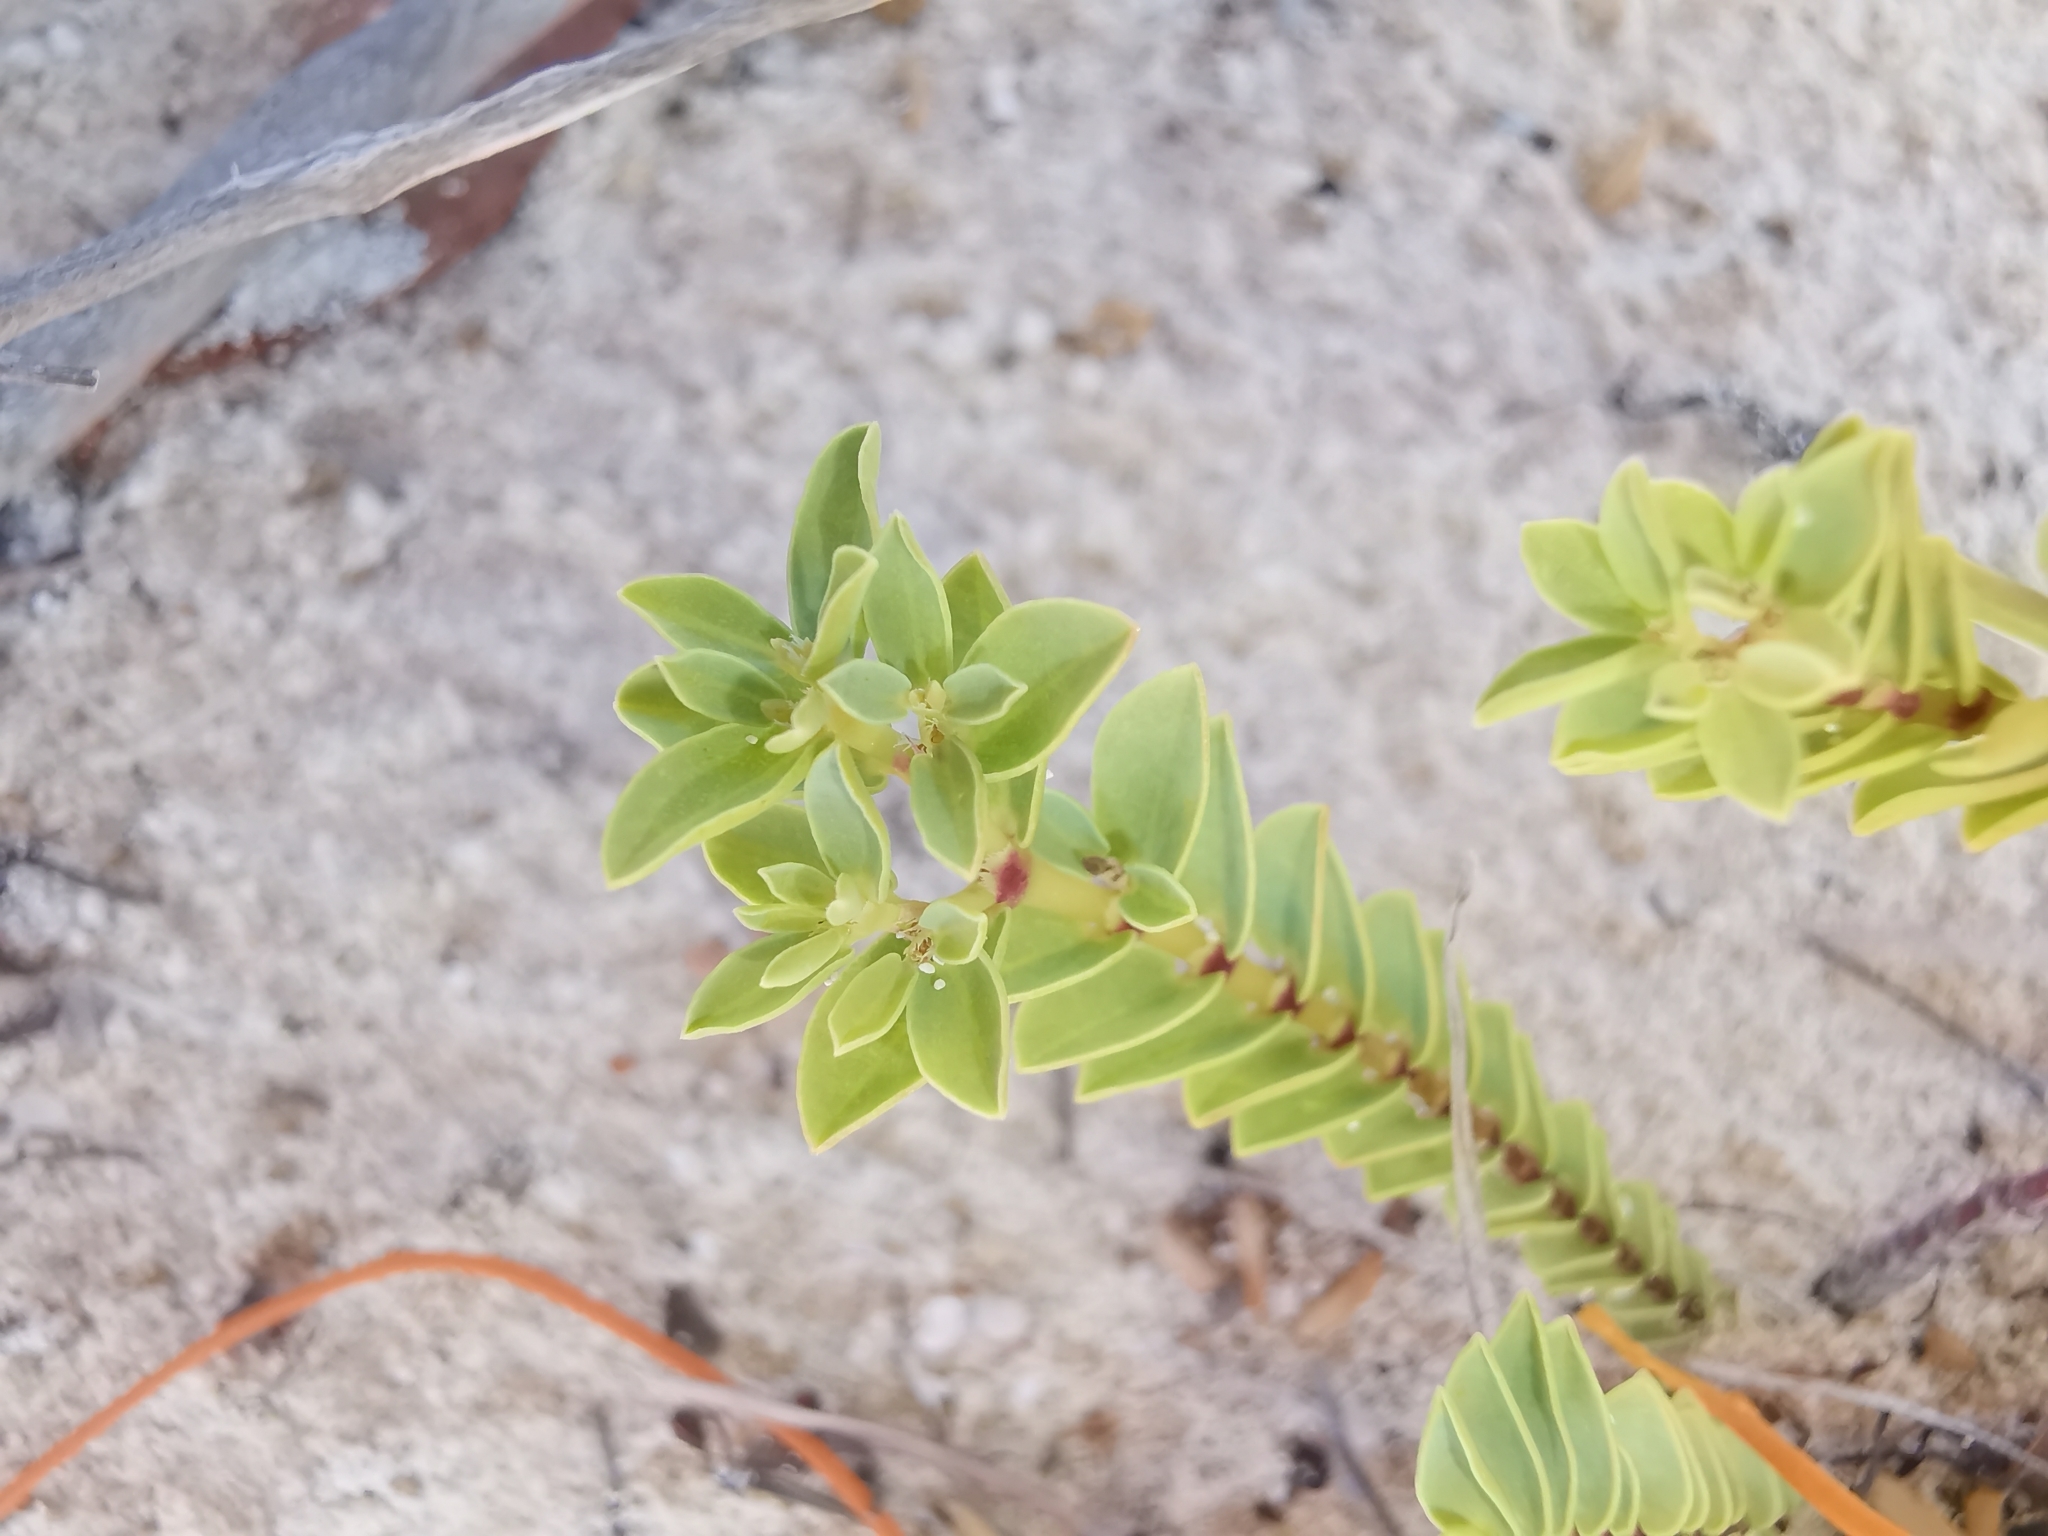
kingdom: Plantae
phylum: Tracheophyta
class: Magnoliopsida
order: Malpighiales
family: Euphorbiaceae
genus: Euphorbia
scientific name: Euphorbia mesembryanthemifolia
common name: Coastal beach sandmat
